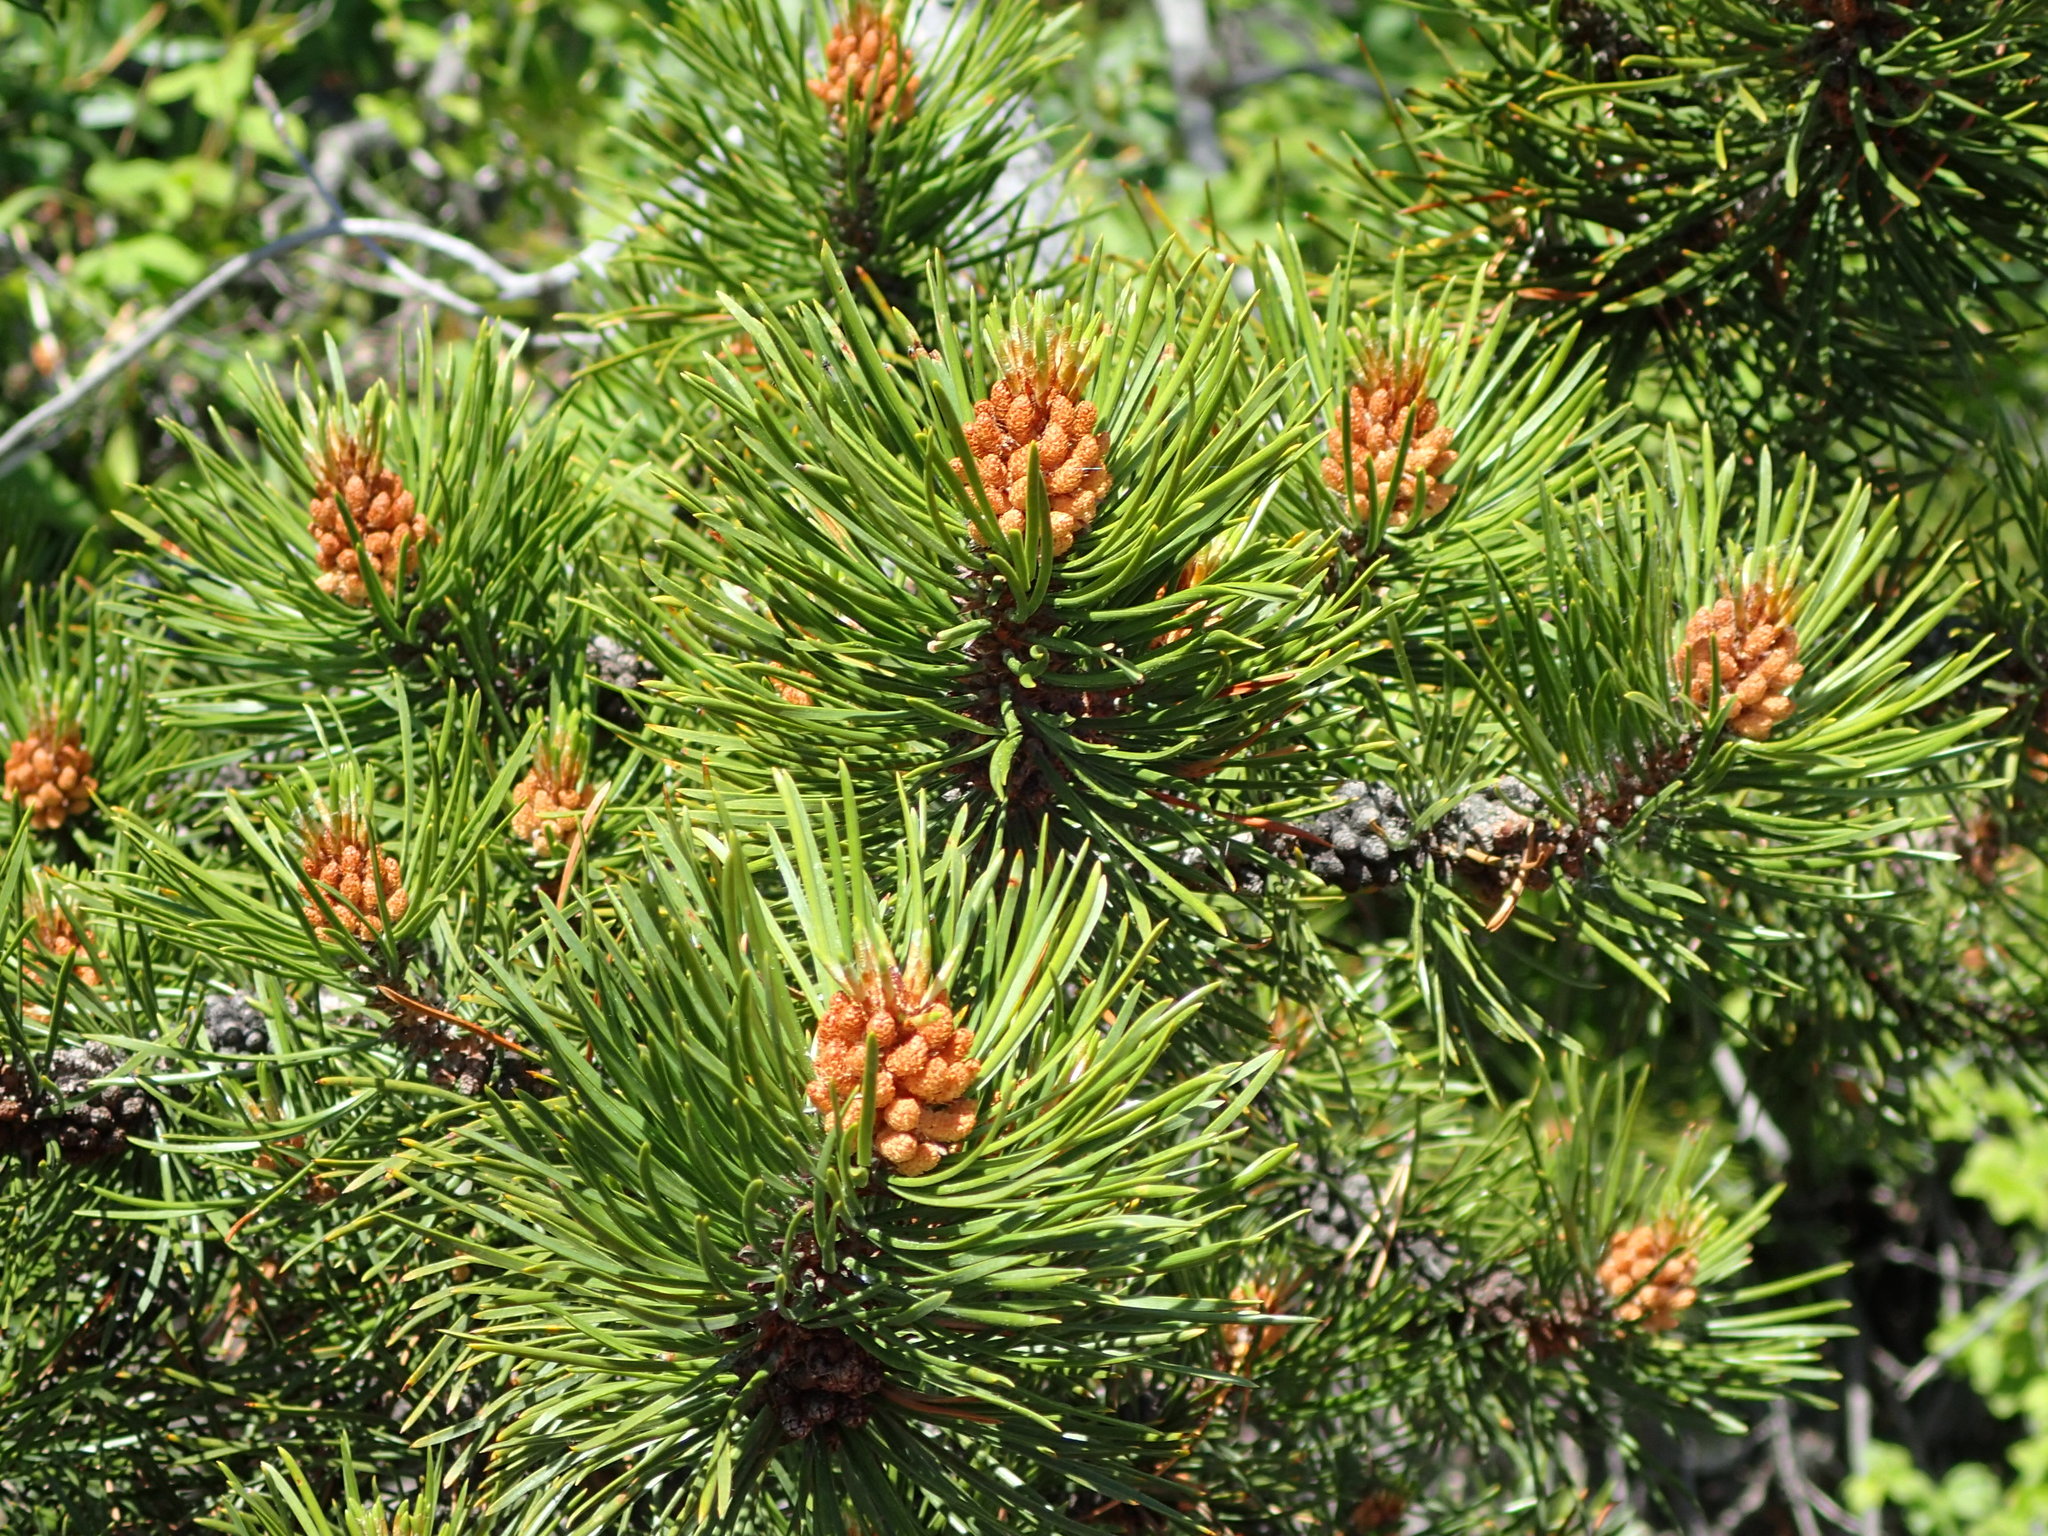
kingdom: Plantae
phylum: Tracheophyta
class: Pinopsida
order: Pinales
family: Pinaceae
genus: Pinus
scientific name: Pinus contorta
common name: Lodgepole pine
